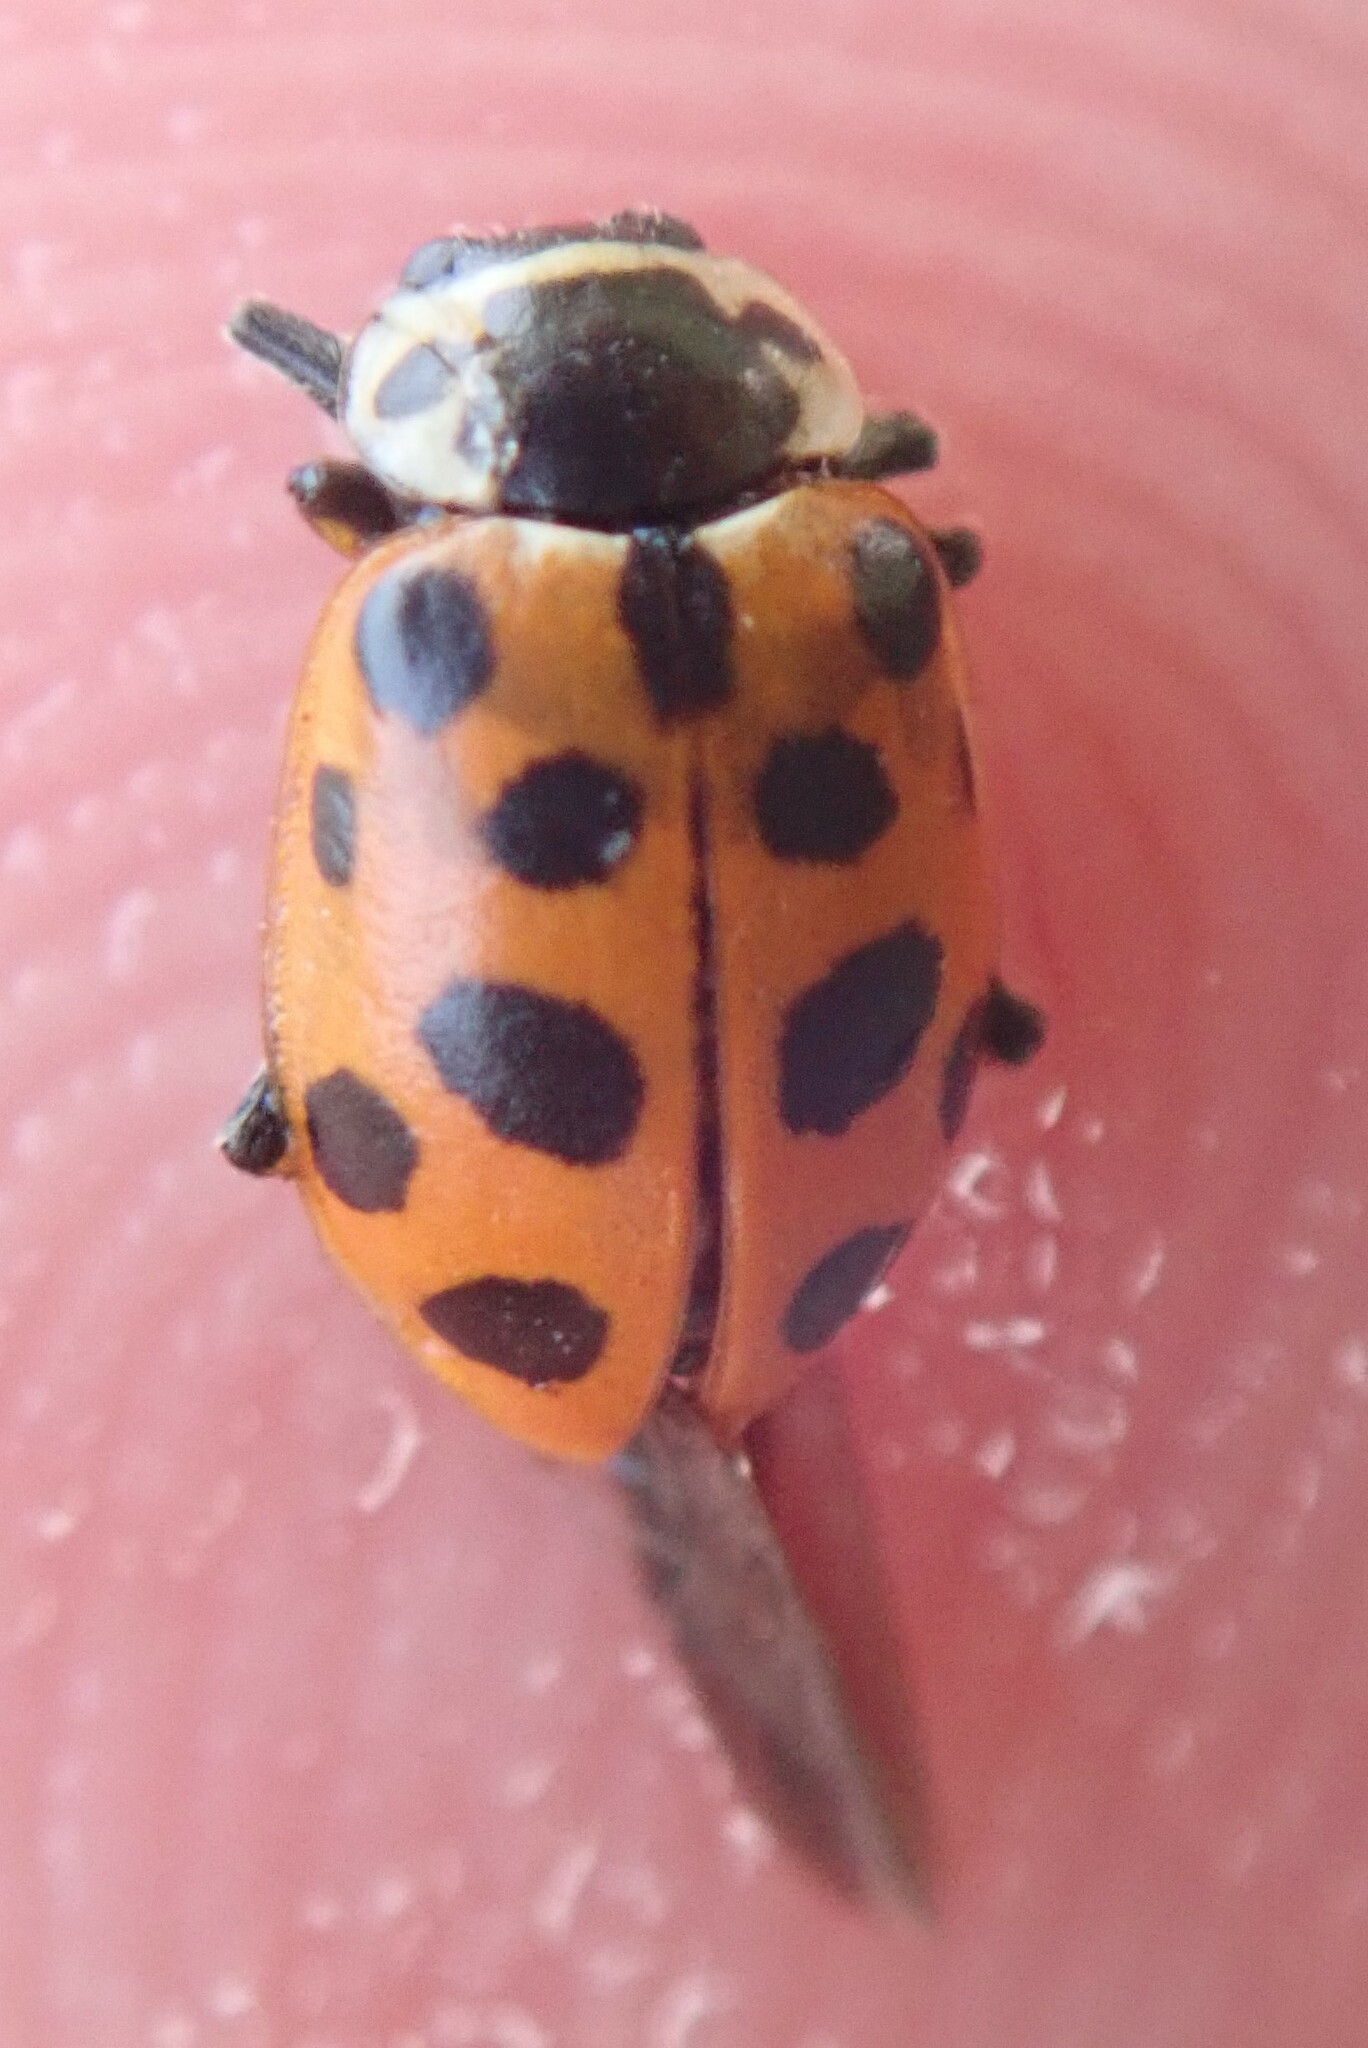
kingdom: Animalia
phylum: Arthropoda
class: Insecta
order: Coleoptera
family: Coccinellidae
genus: Hippodamia
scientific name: Hippodamia tredecimpunctata
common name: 13-spot ladybird
